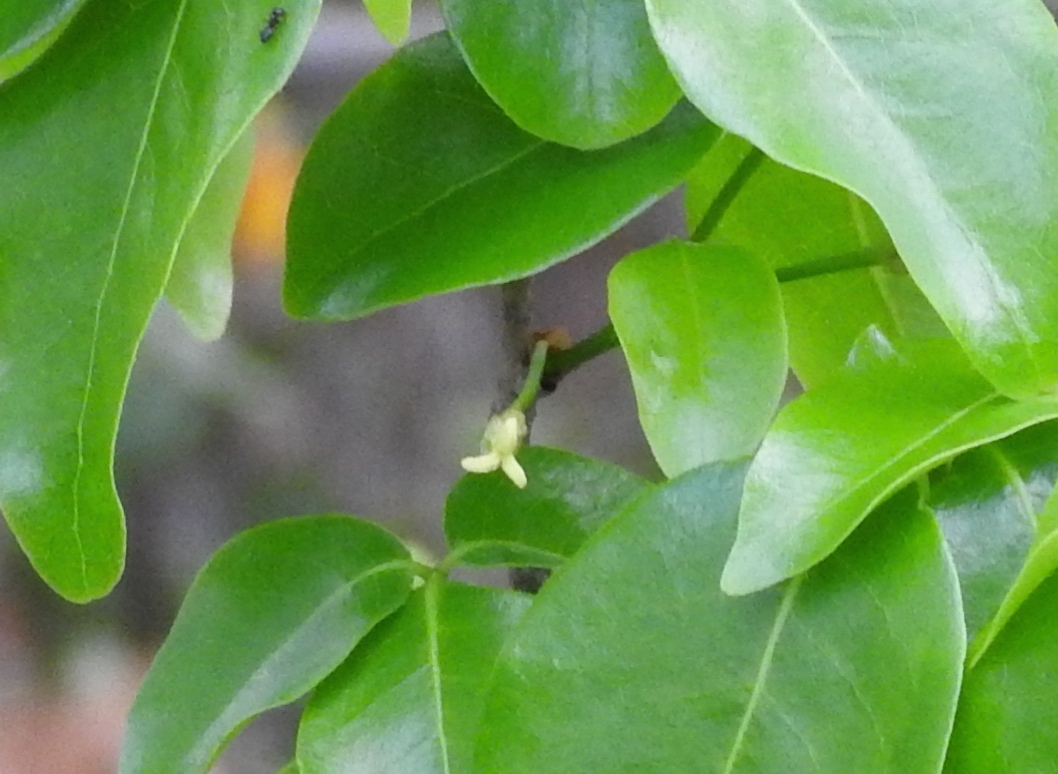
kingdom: Plantae
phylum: Tracheophyta
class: Magnoliopsida
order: Malpighiales
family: Picrodendraceae
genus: Piranhea
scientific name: Piranhea mexicana
